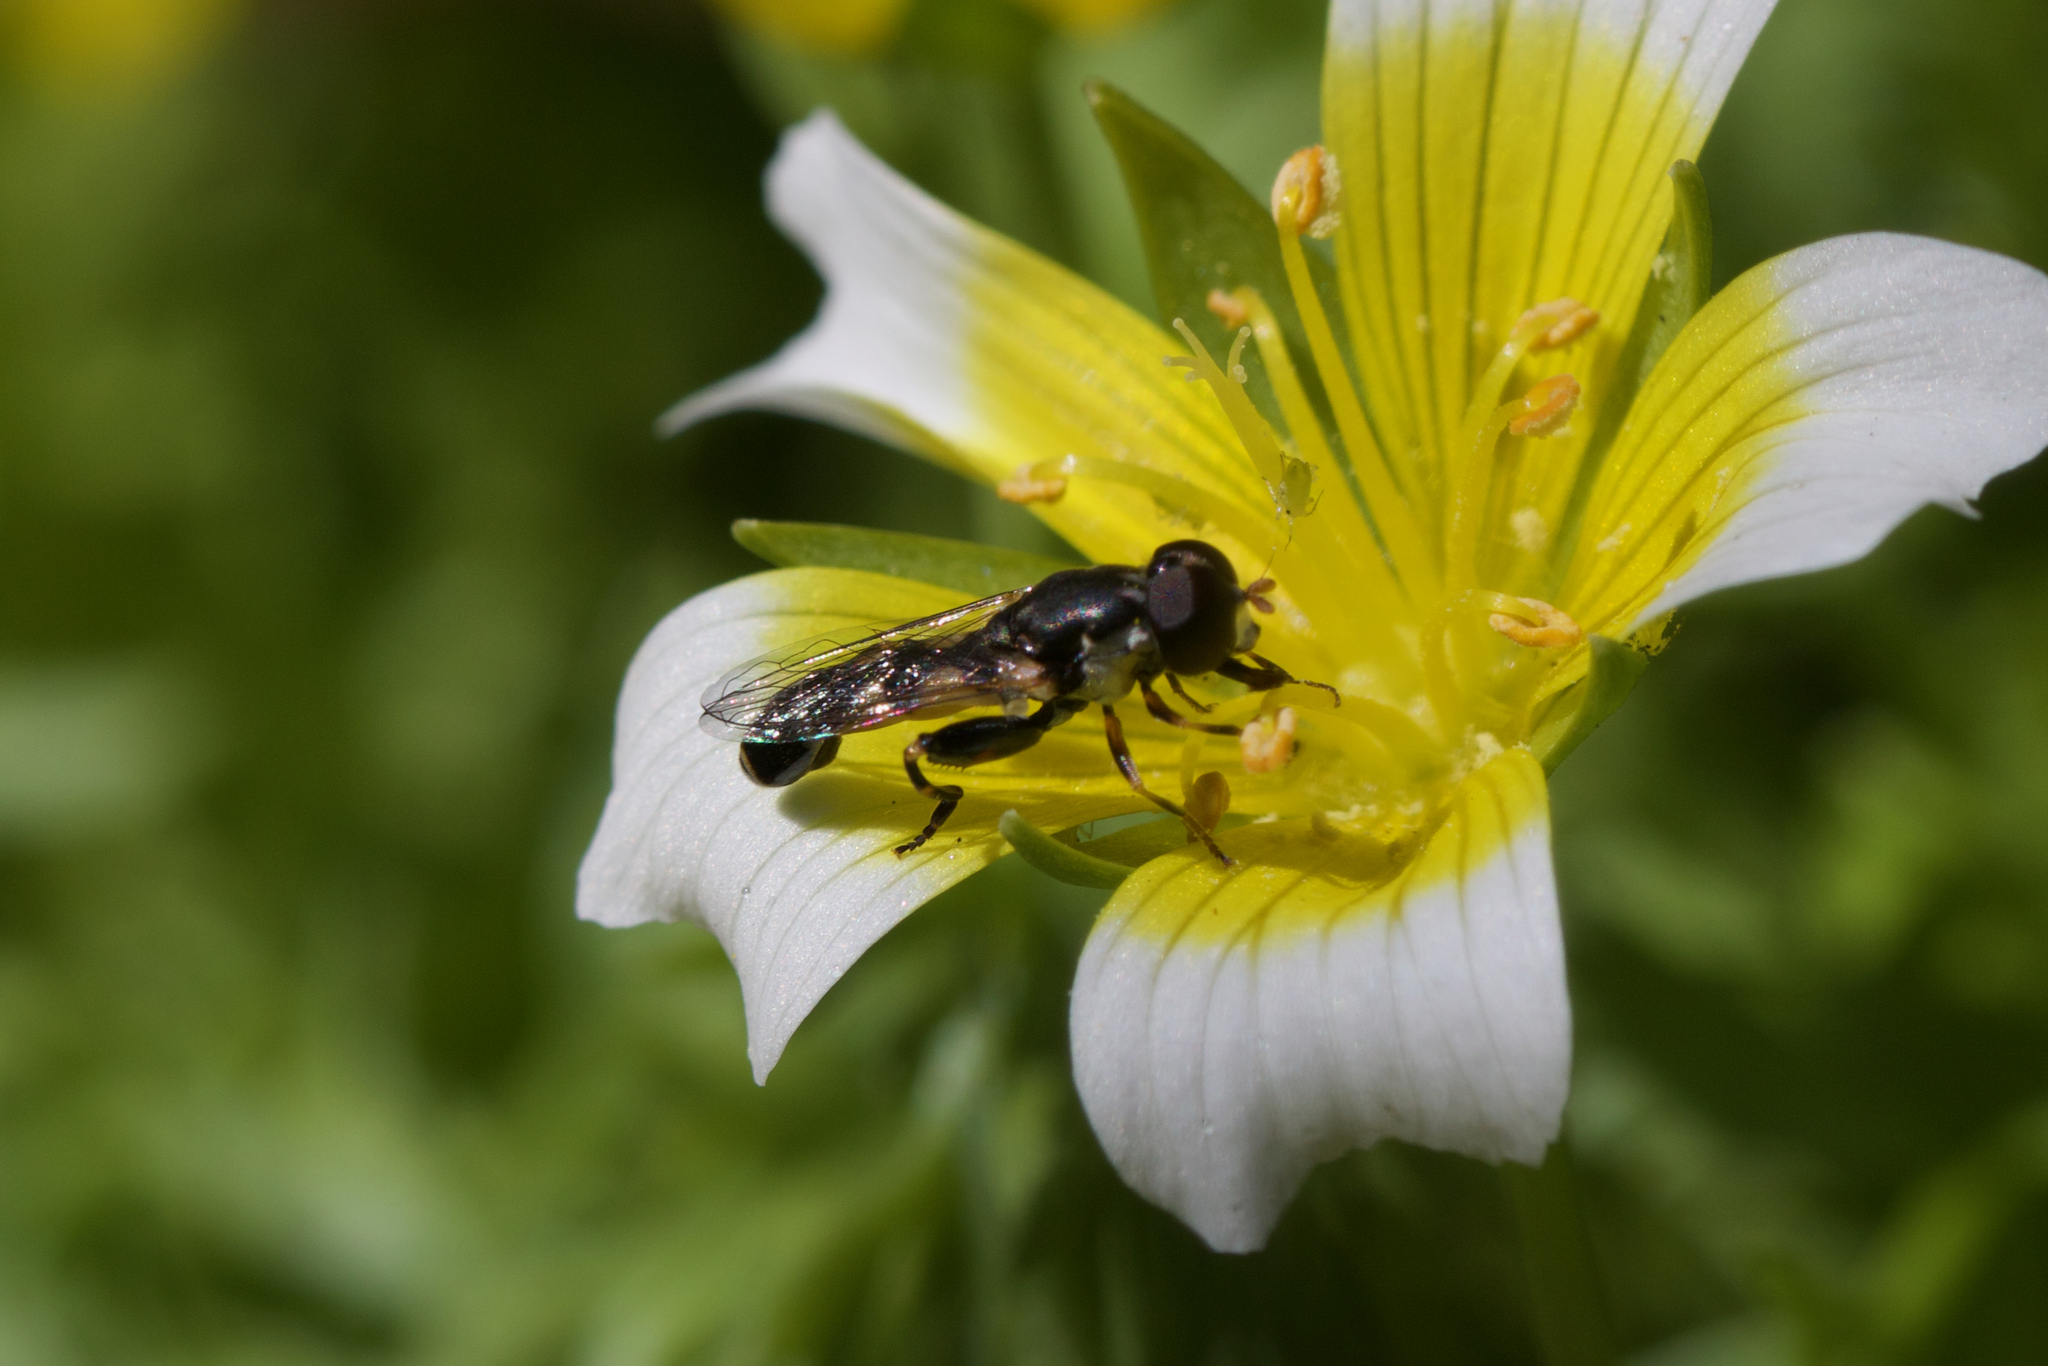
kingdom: Animalia
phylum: Arthropoda
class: Insecta
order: Diptera
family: Syrphidae
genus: Syritta
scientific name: Syritta pipiens
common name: Hover fly
